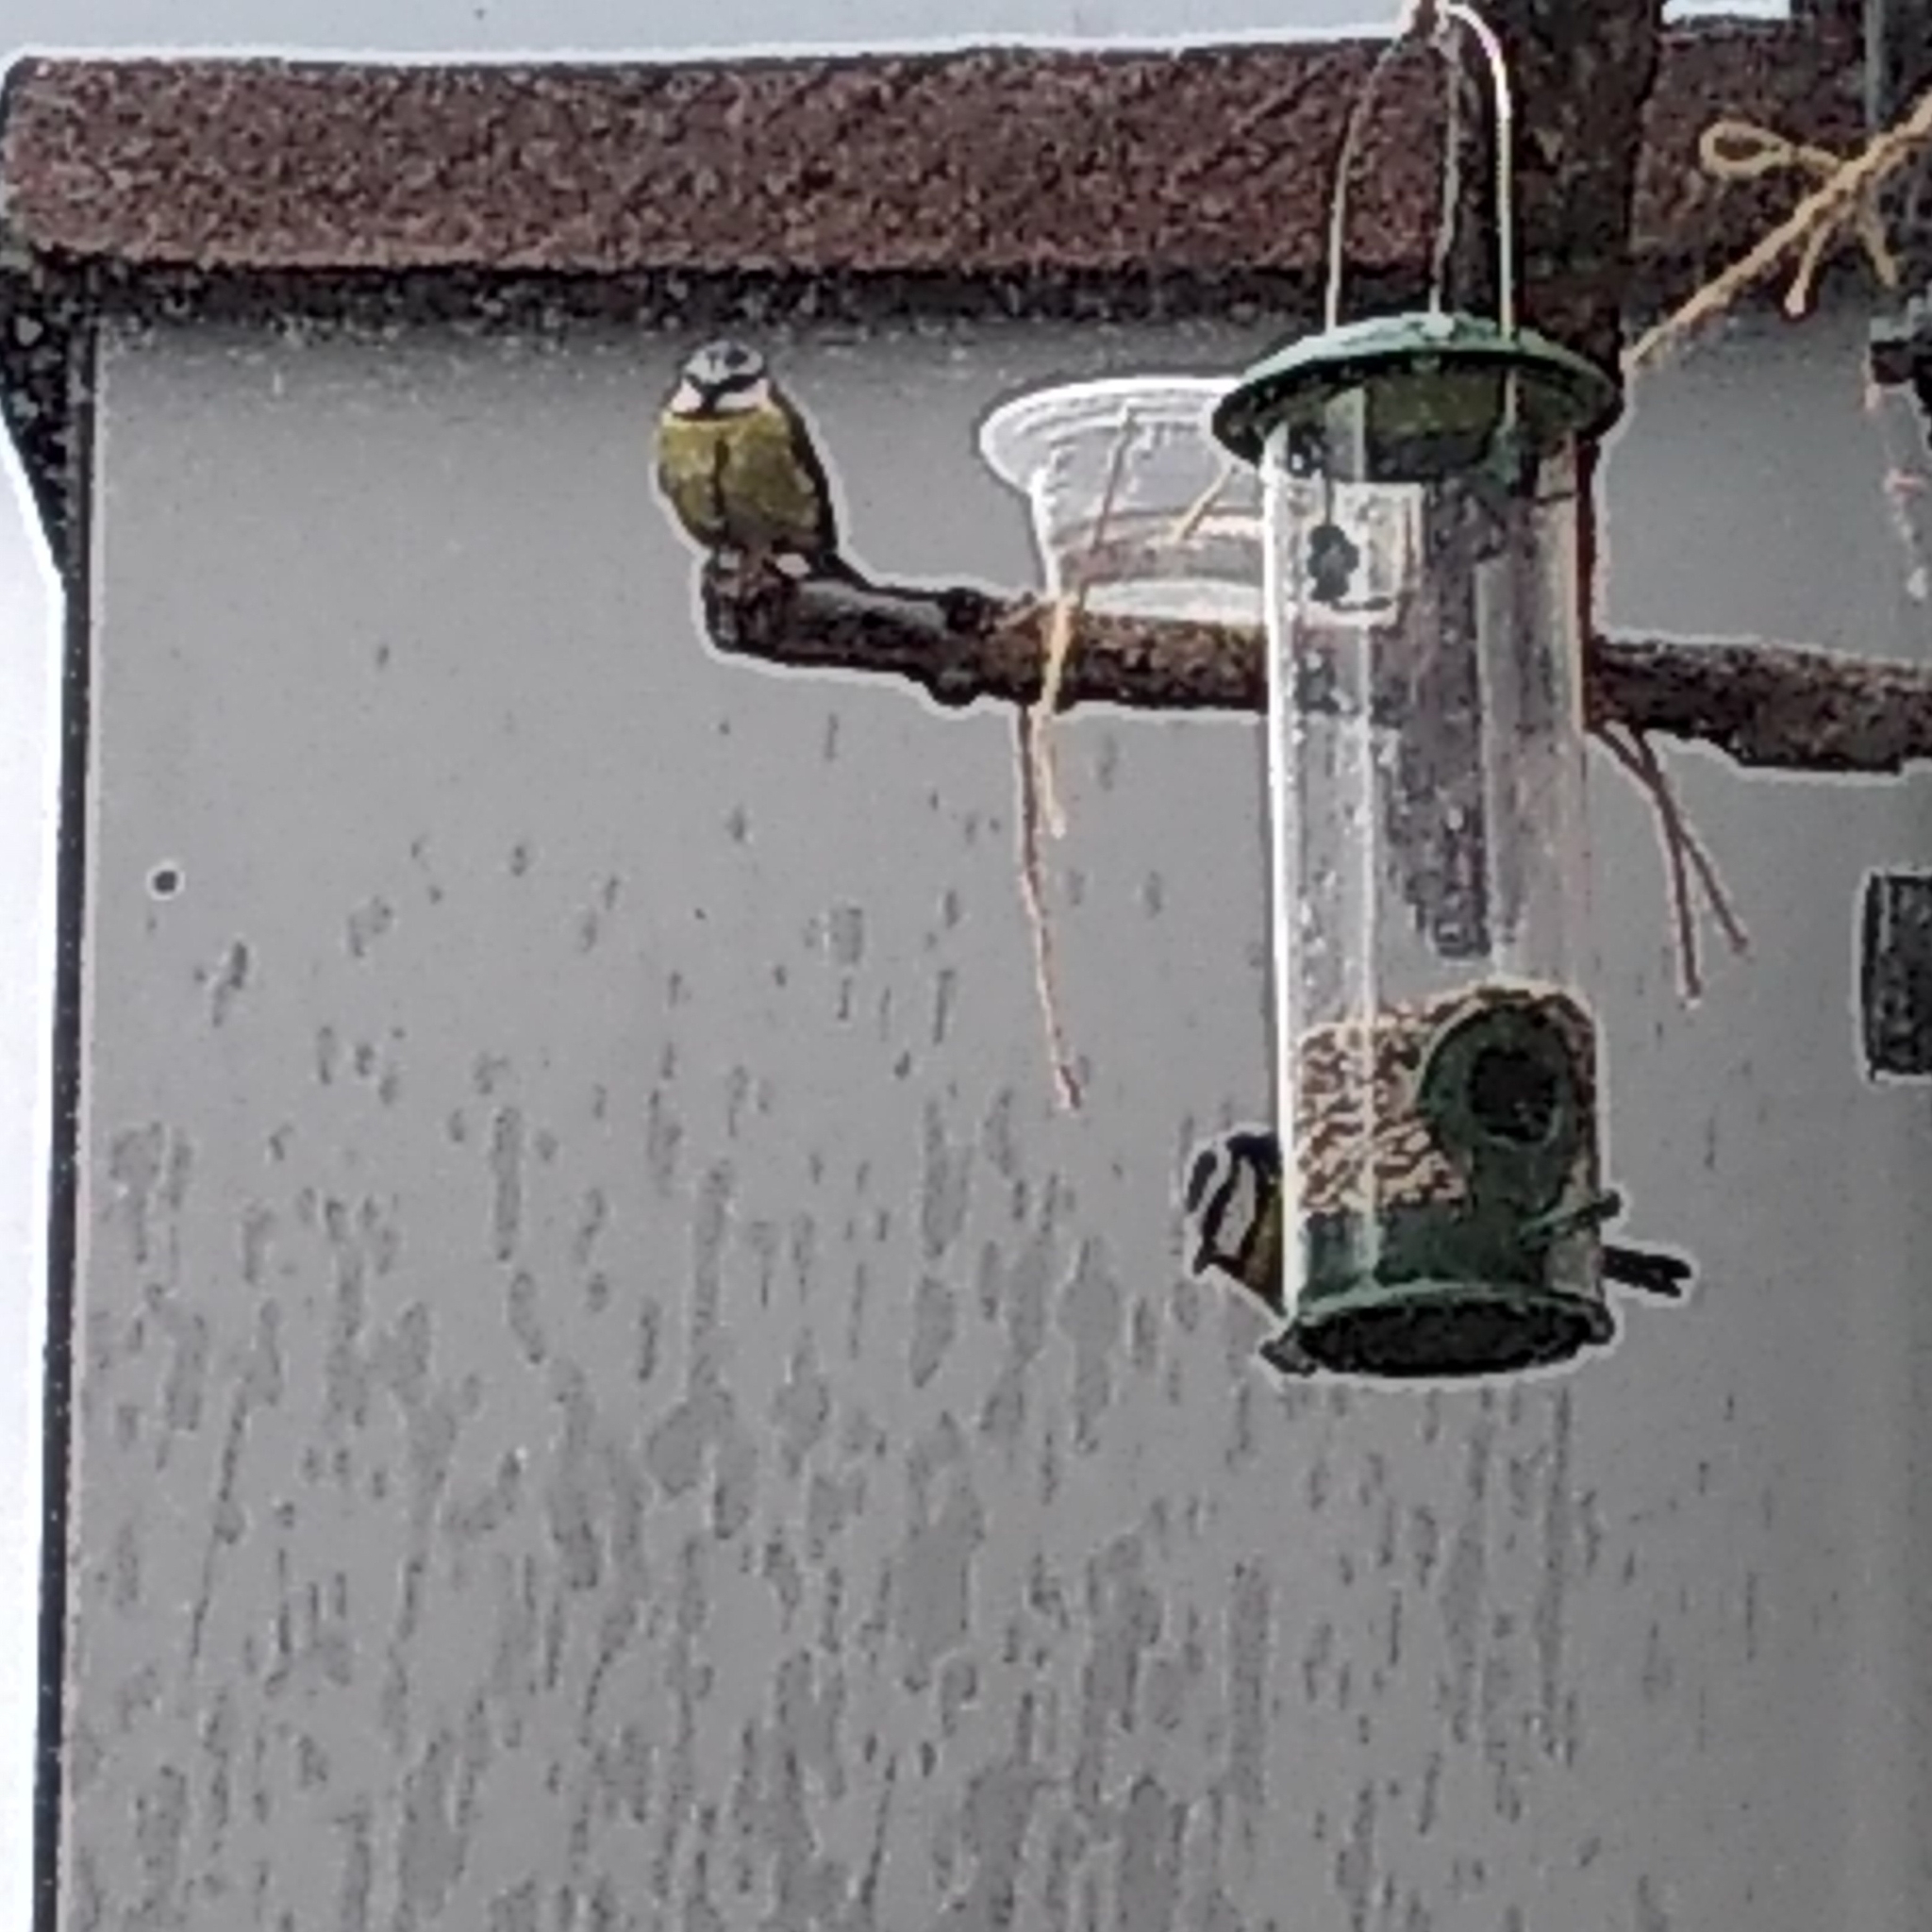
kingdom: Animalia
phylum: Chordata
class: Aves
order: Passeriformes
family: Paridae
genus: Cyanistes
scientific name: Cyanistes caeruleus
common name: Eurasian blue tit
